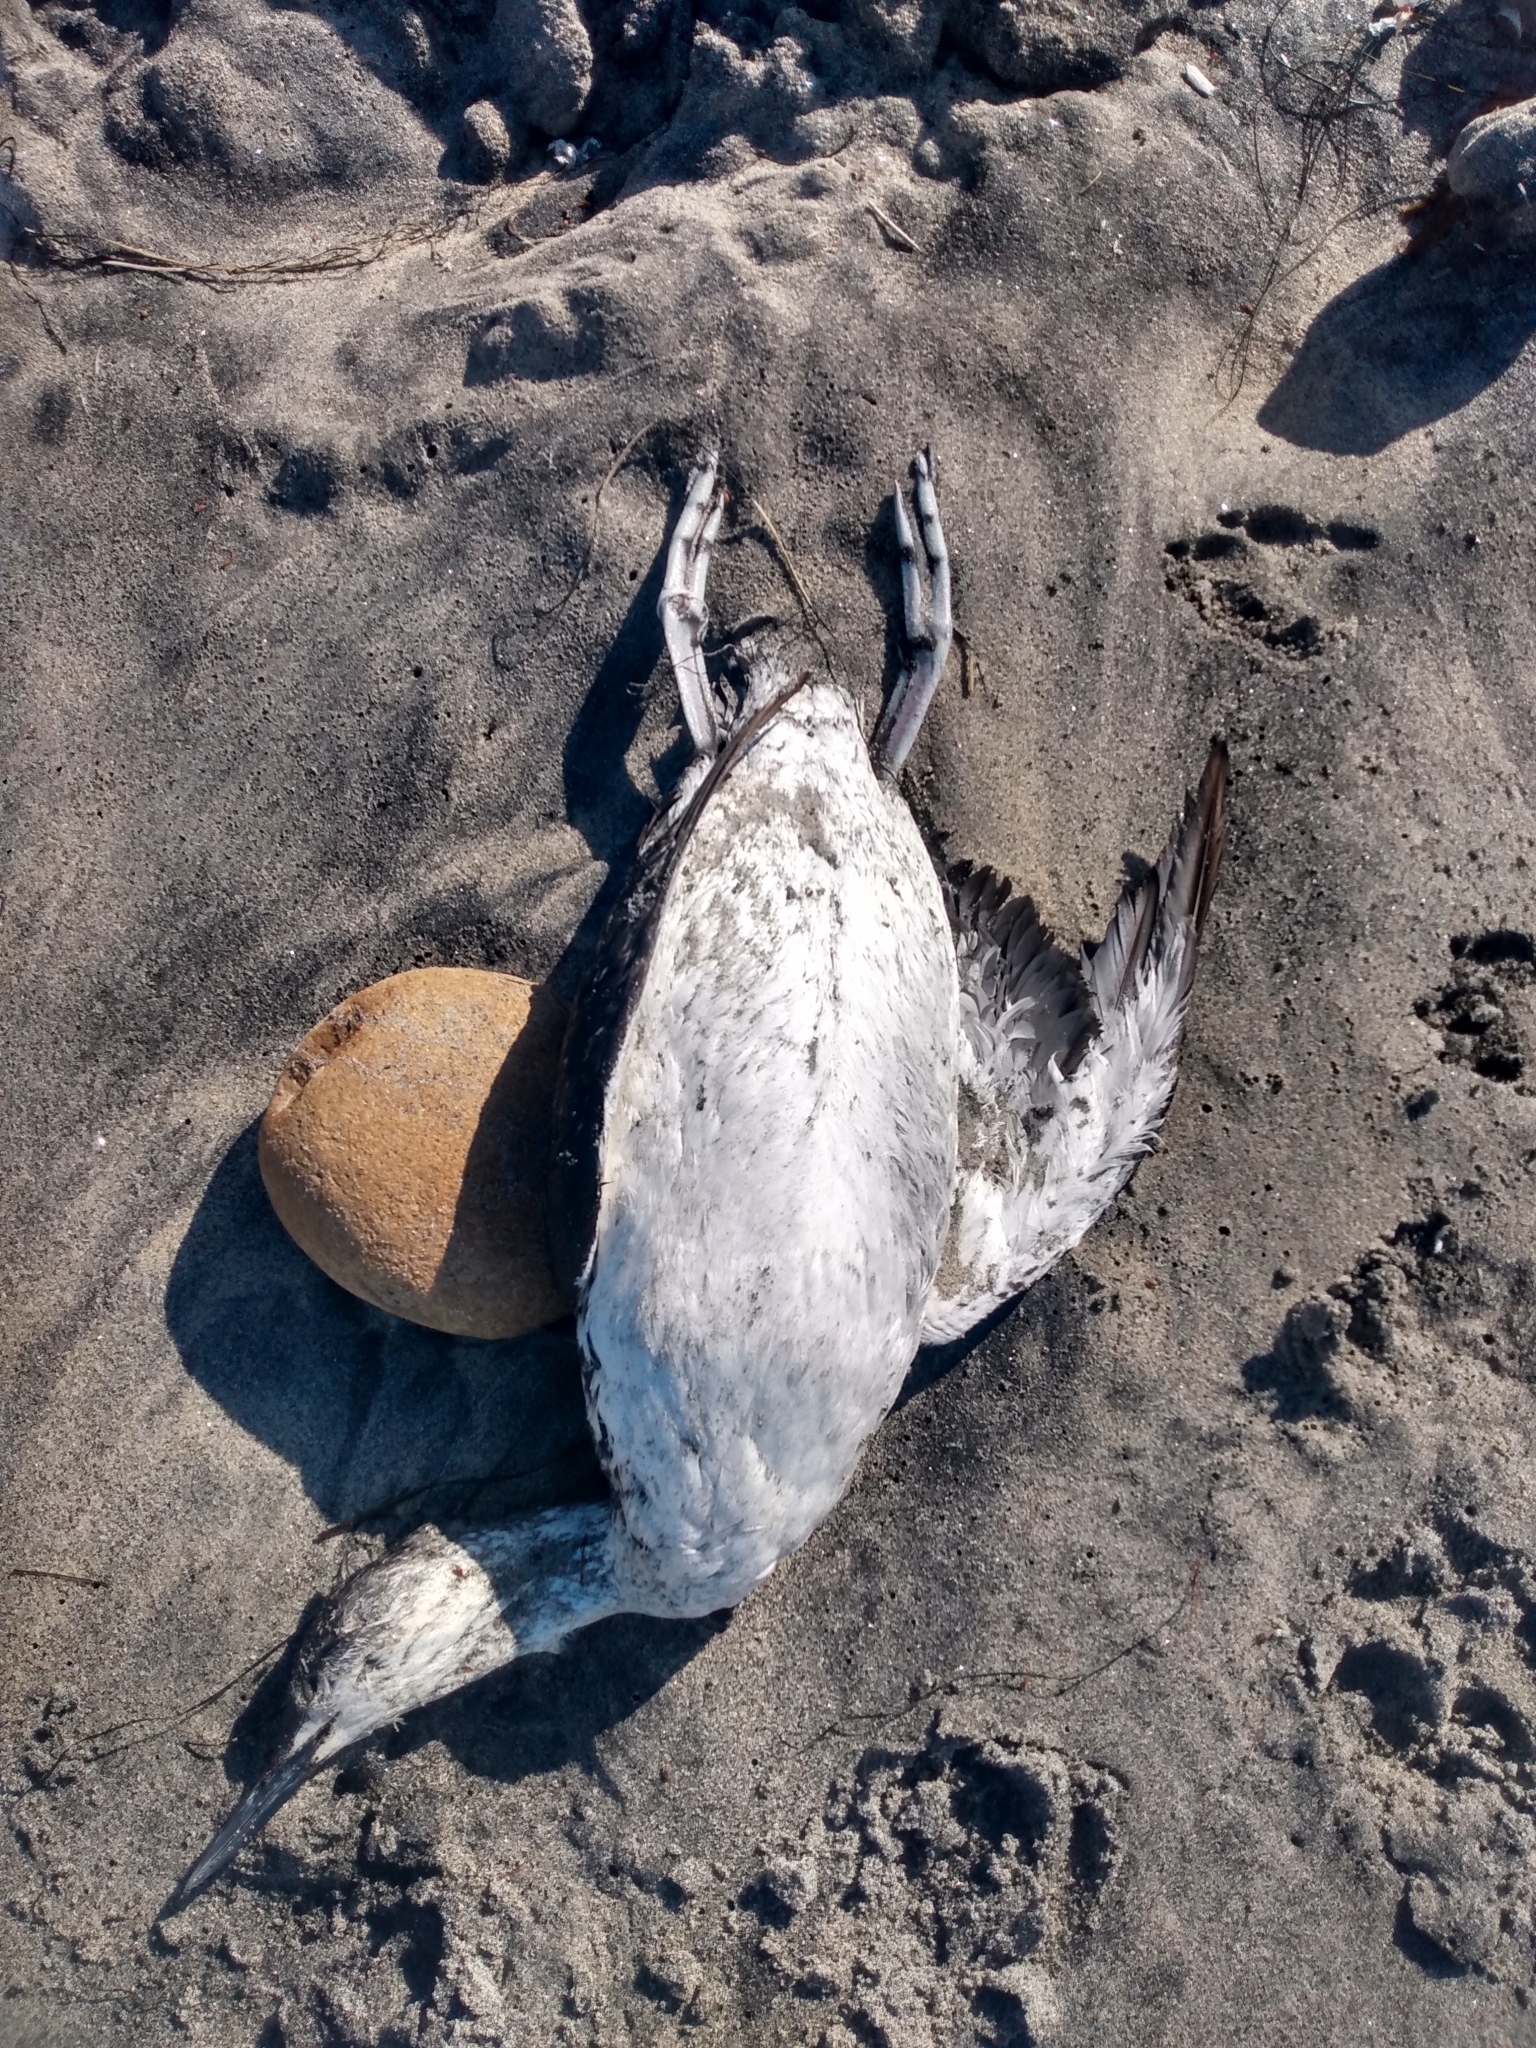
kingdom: Animalia
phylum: Chordata
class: Aves
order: Gaviiformes
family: Gaviidae
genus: Gavia
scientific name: Gavia stellata
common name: Red-throated loon
